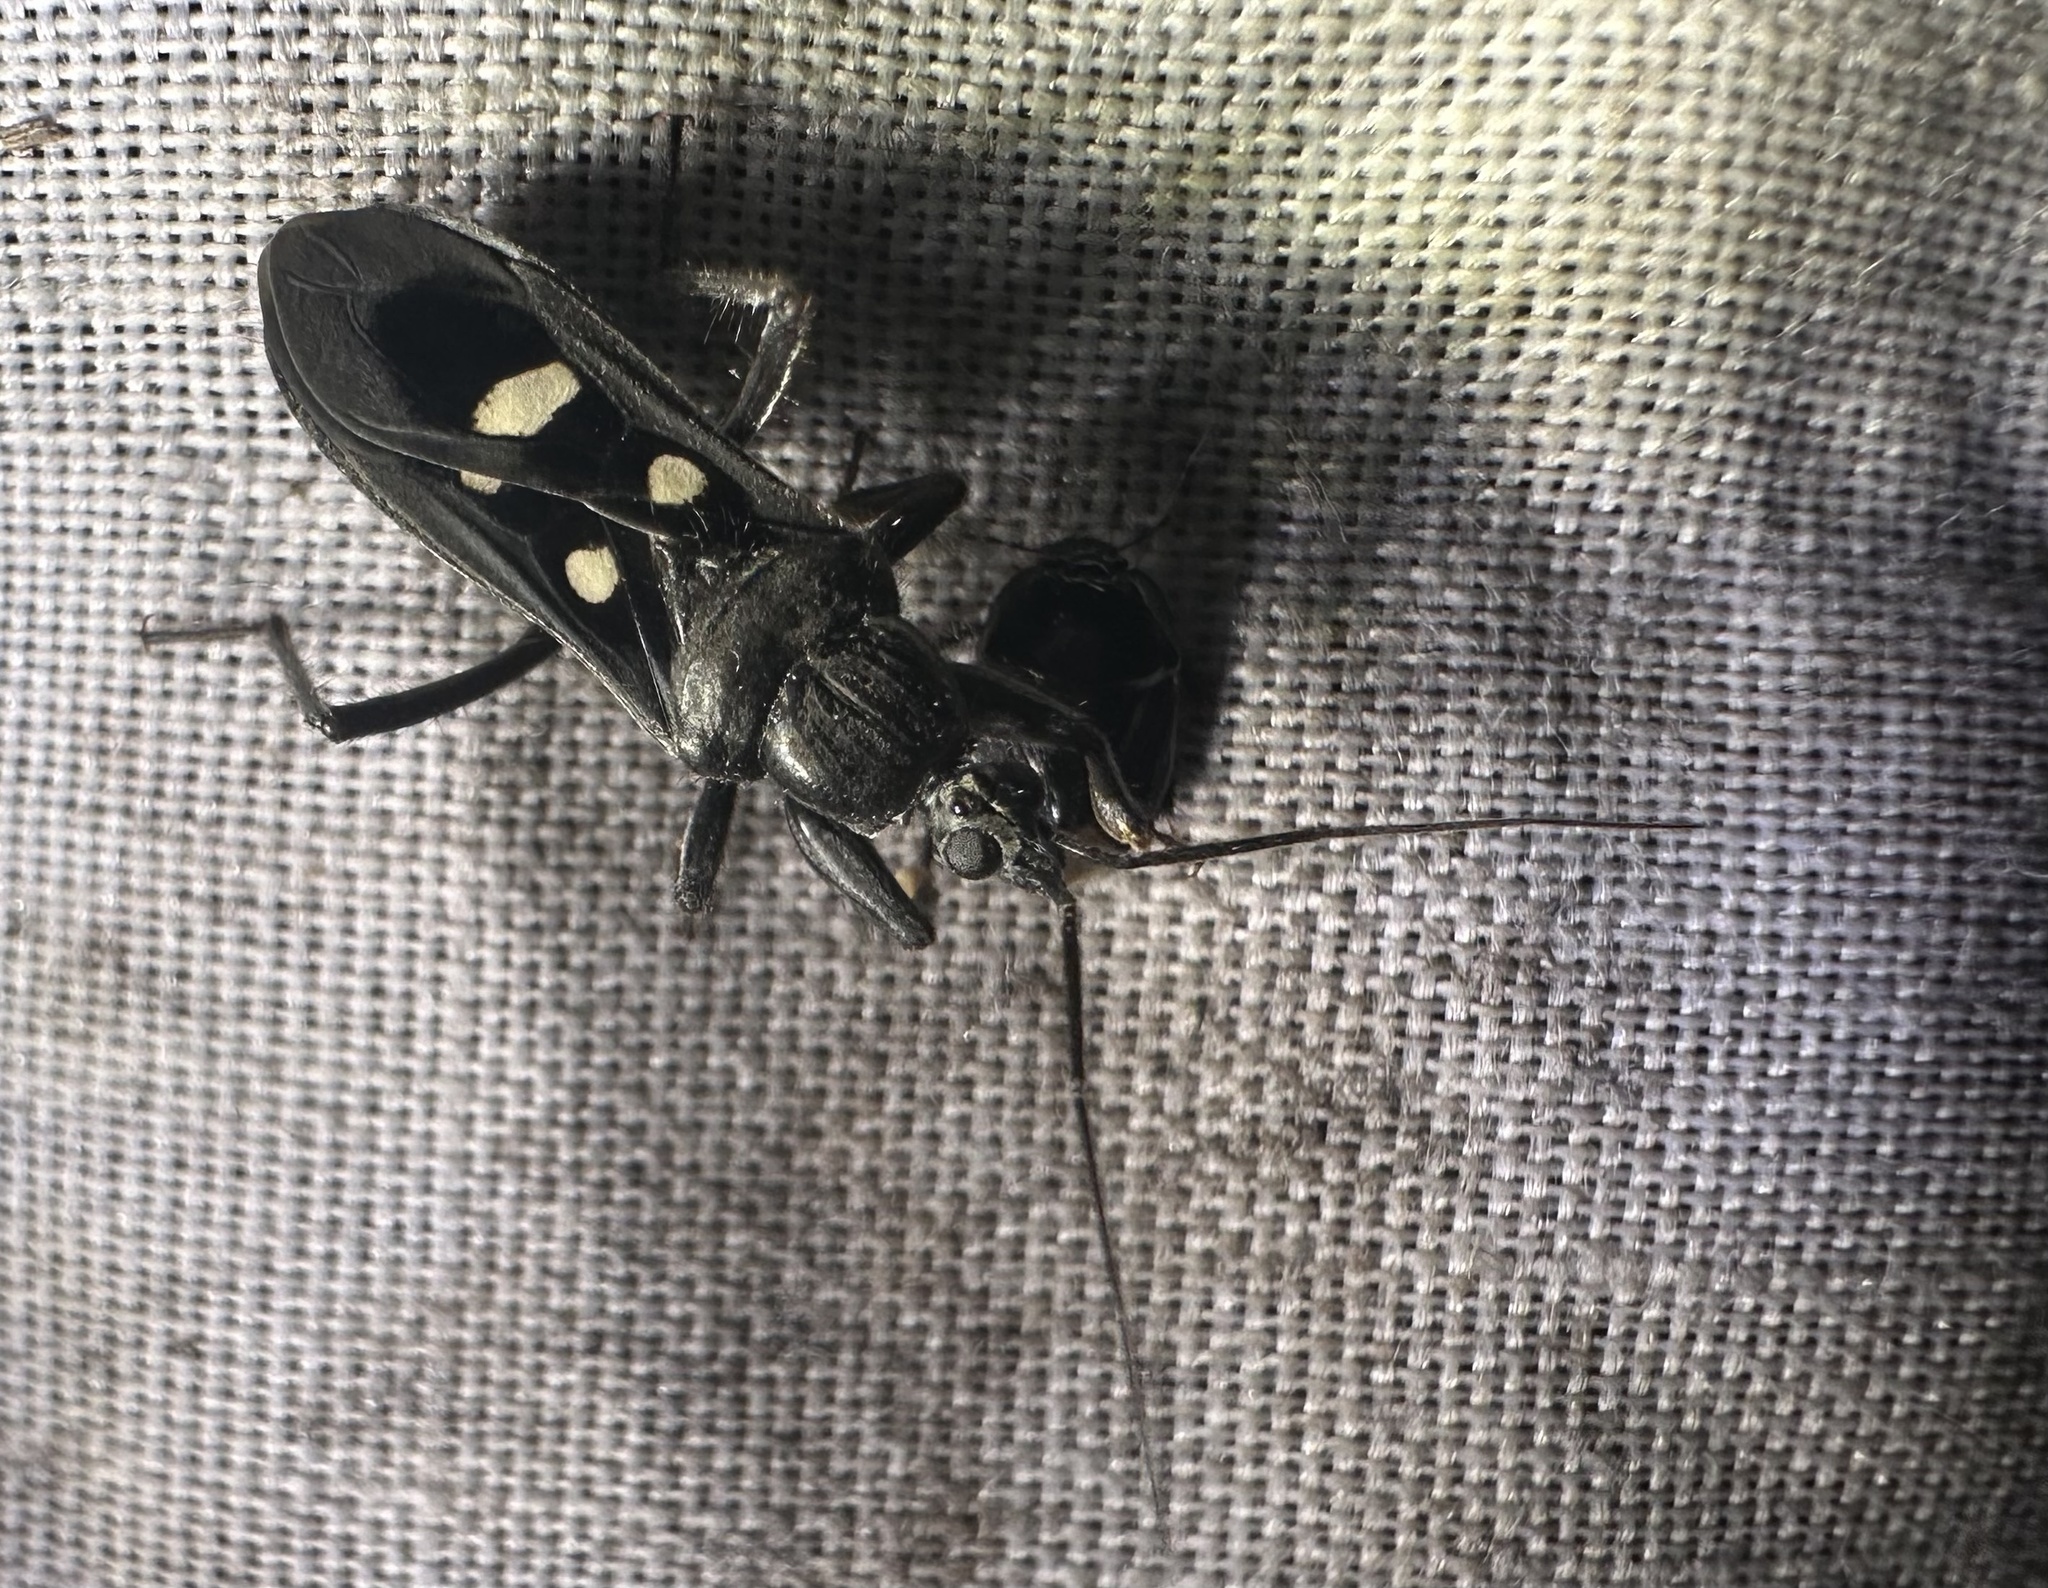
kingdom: Animalia
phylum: Arthropoda
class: Insecta
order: Hemiptera
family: Reduviidae
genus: Ectomocoris
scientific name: Ectomocoris quadrimaculatus
